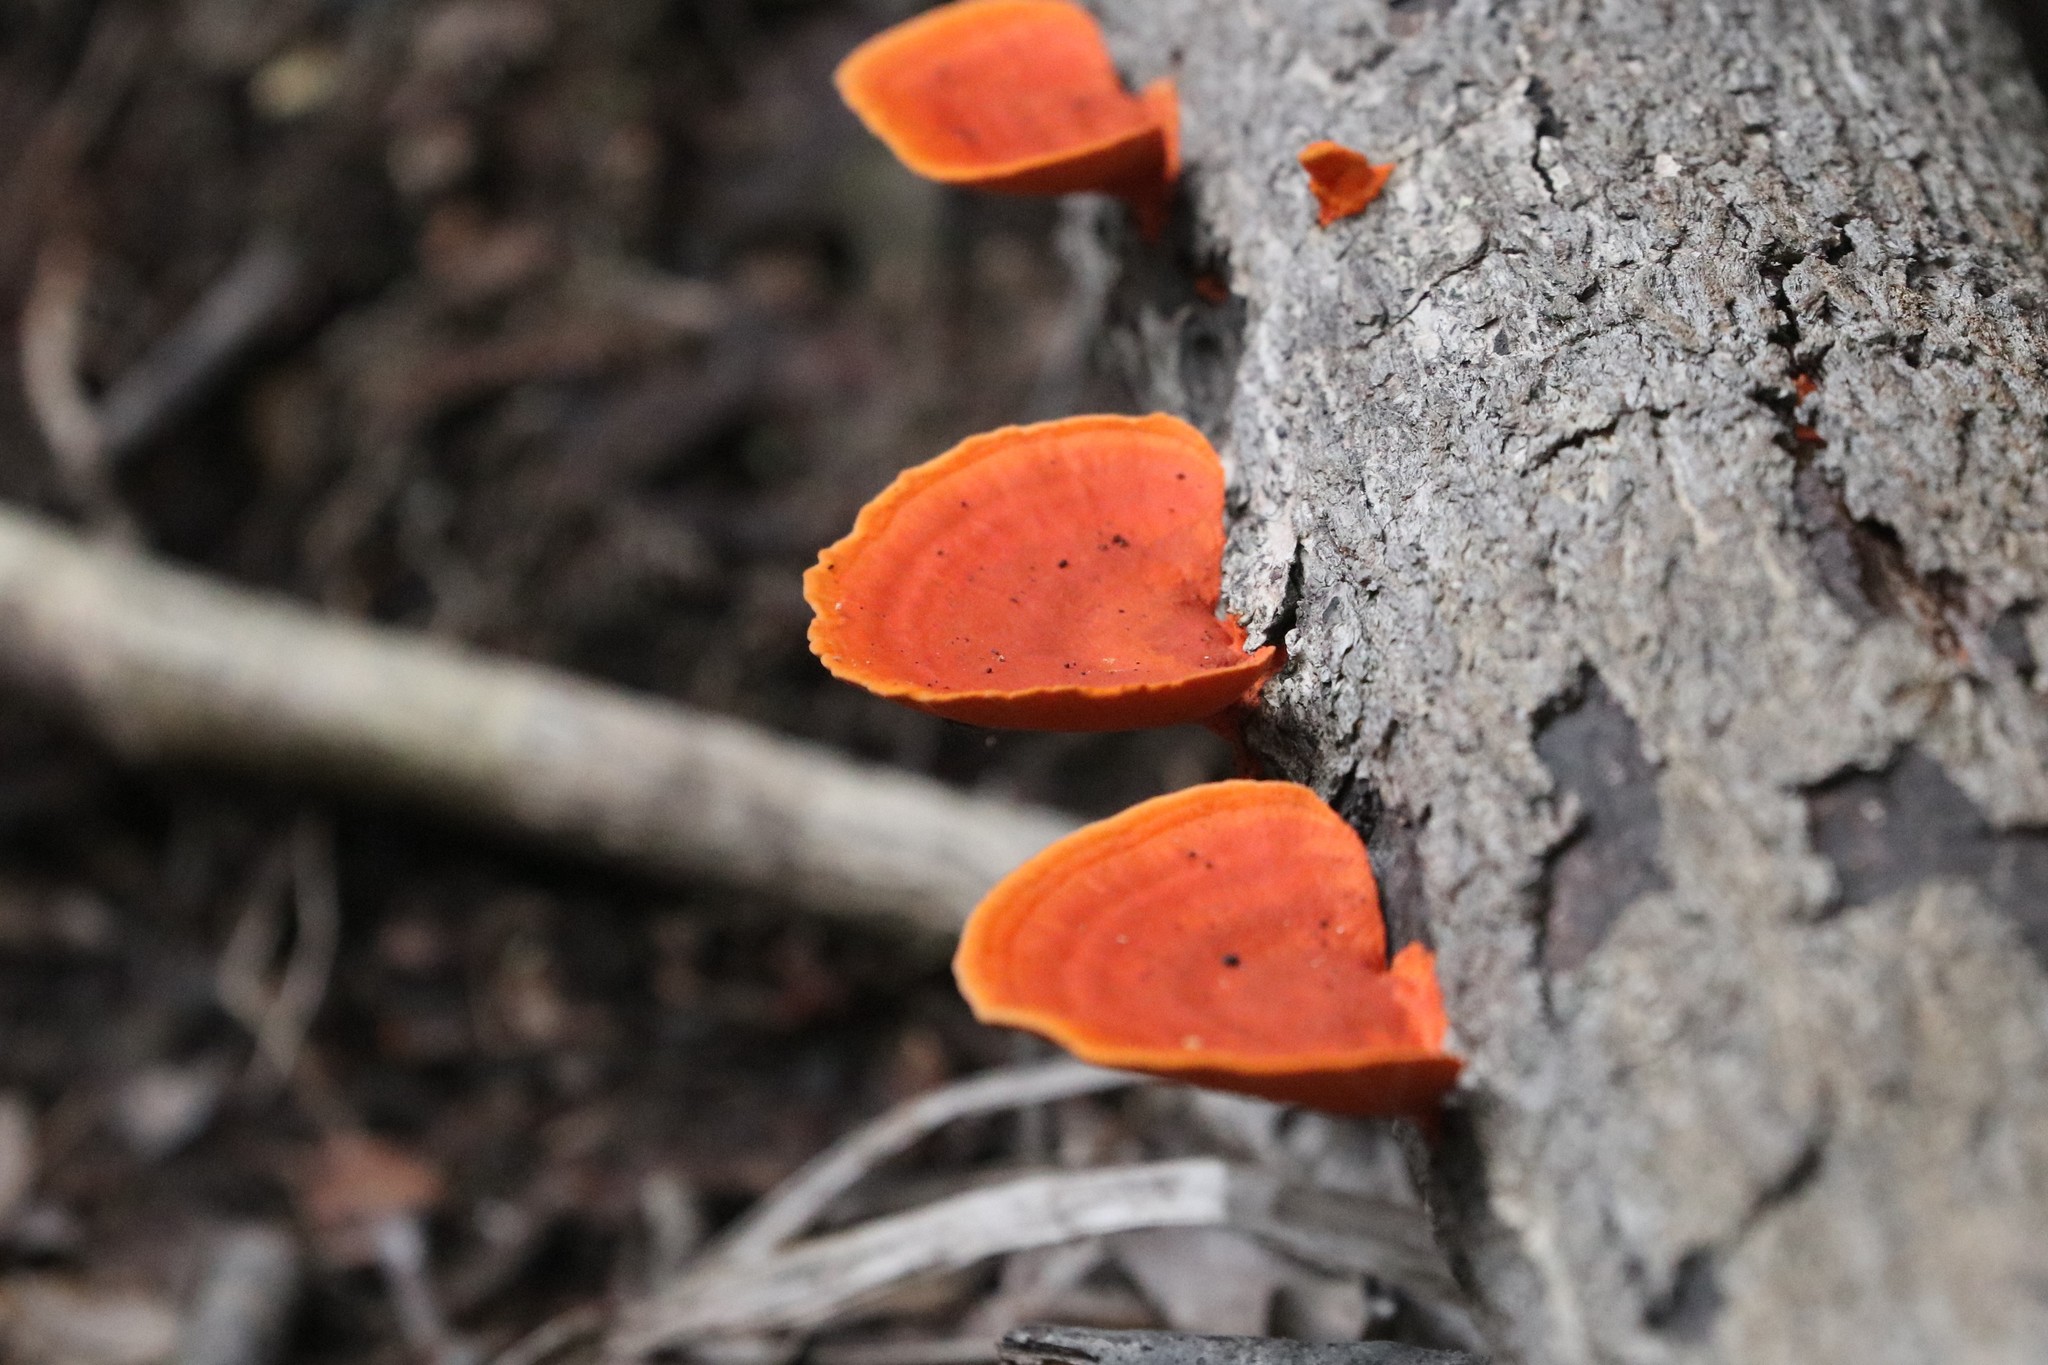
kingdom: Fungi
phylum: Basidiomycota
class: Agaricomycetes
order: Polyporales
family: Polyporaceae
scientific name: Polyporaceae
